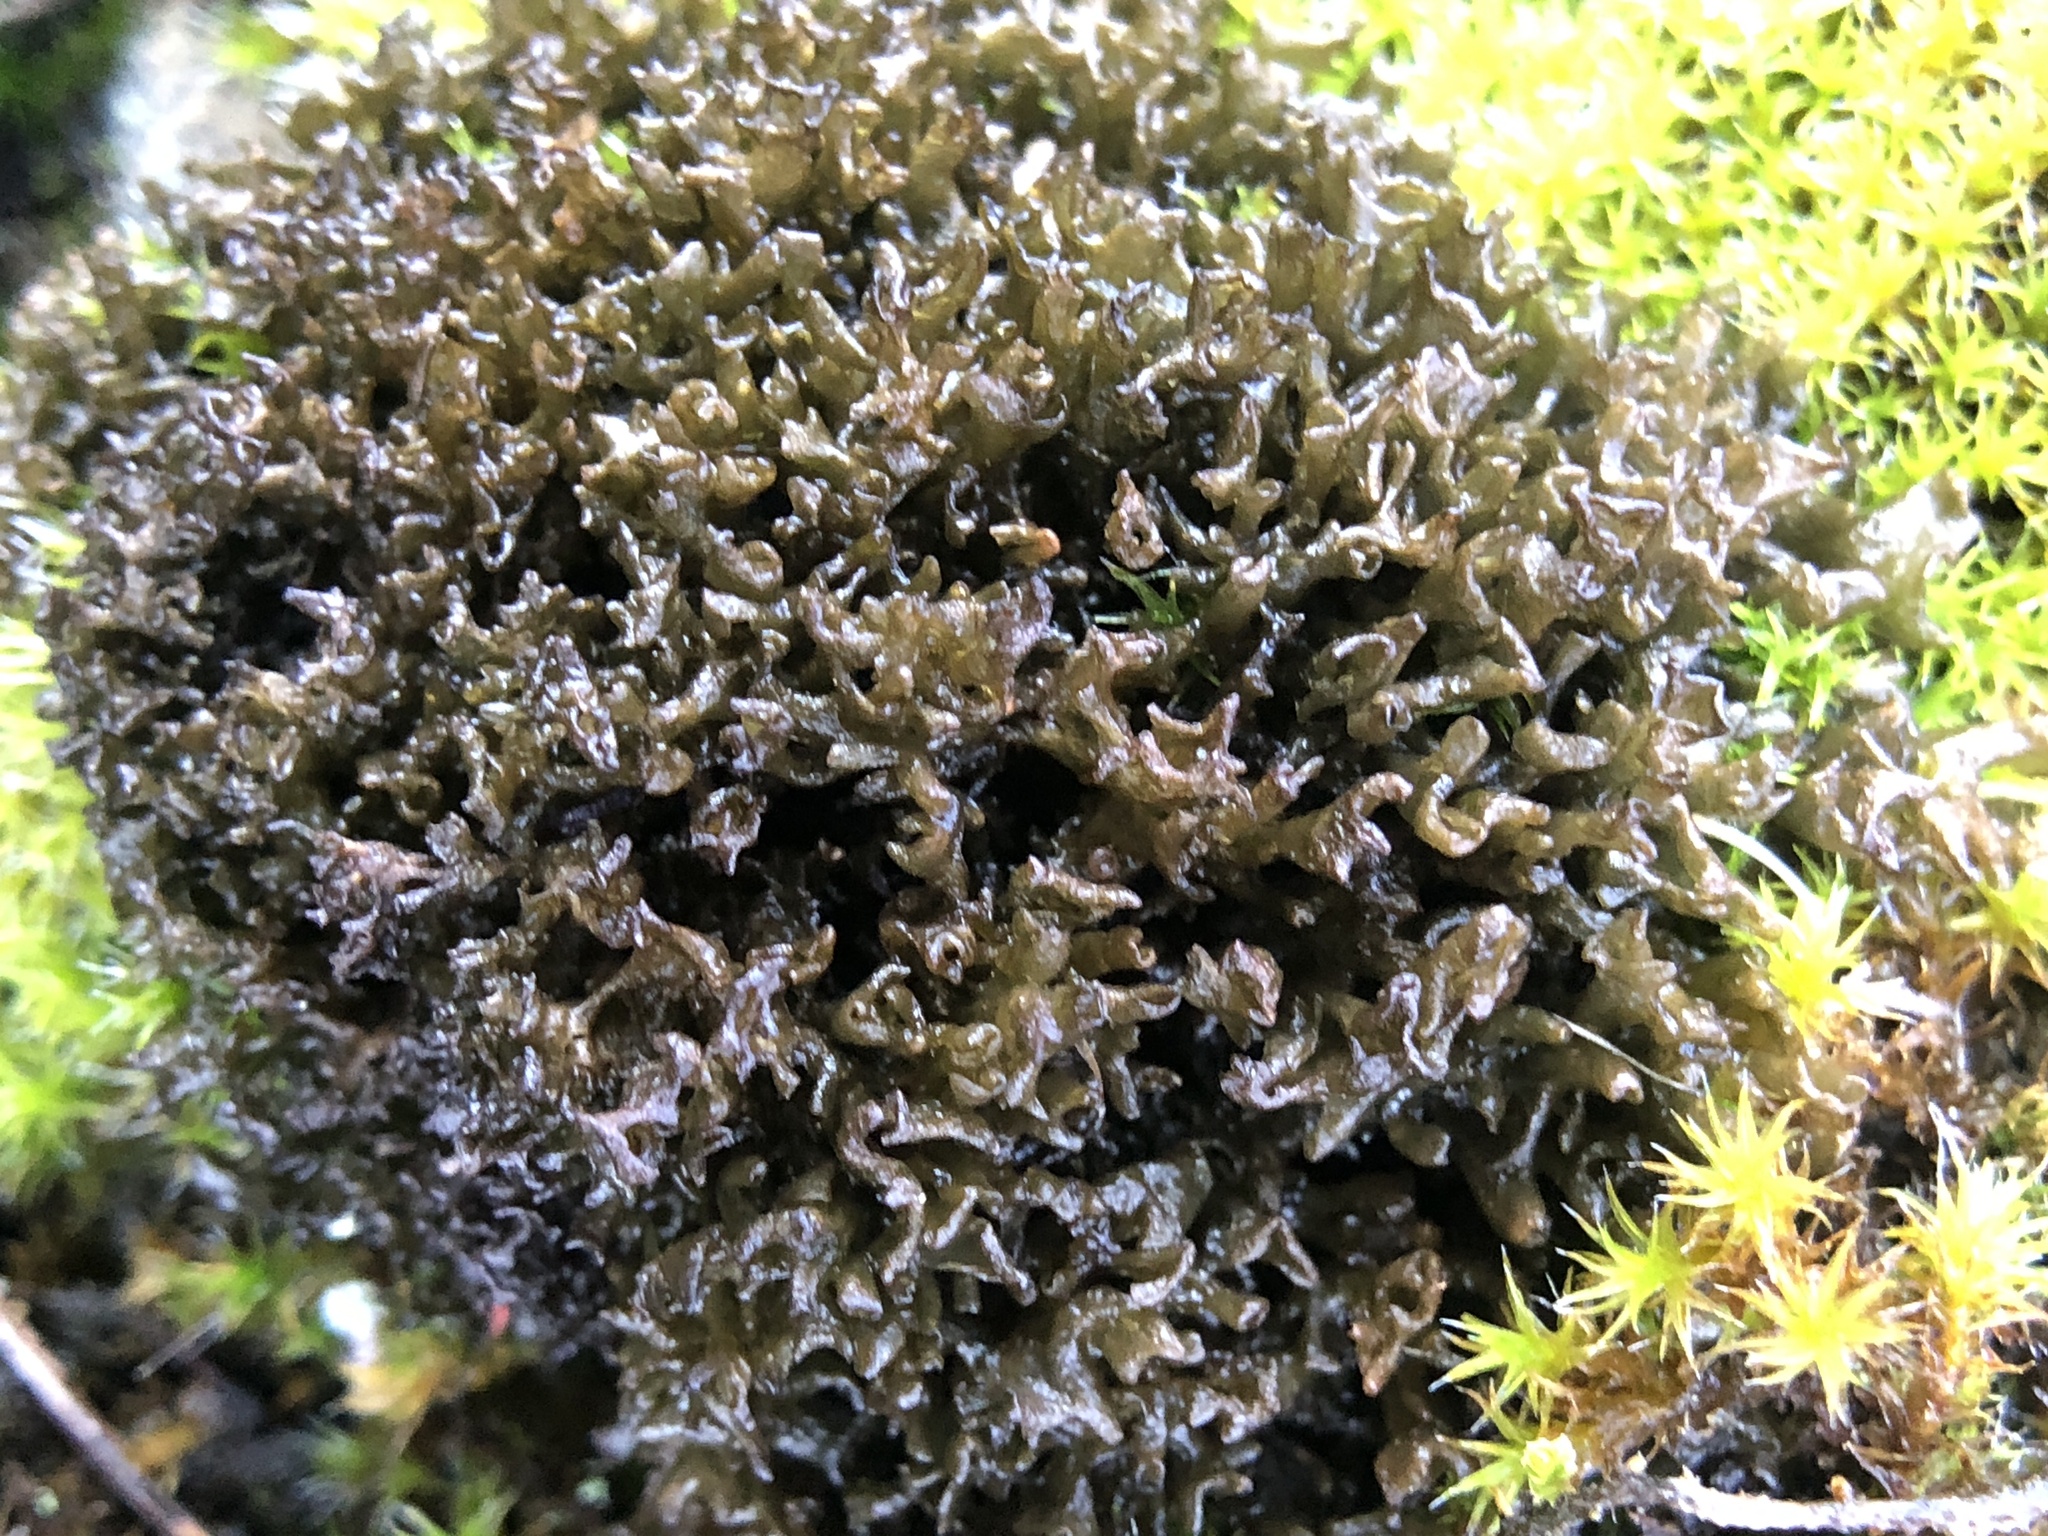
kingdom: Fungi
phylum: Ascomycota
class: Lecanoromycetes
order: Peltigerales
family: Collemataceae
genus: Scytinium
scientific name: Scytinium palmatum
